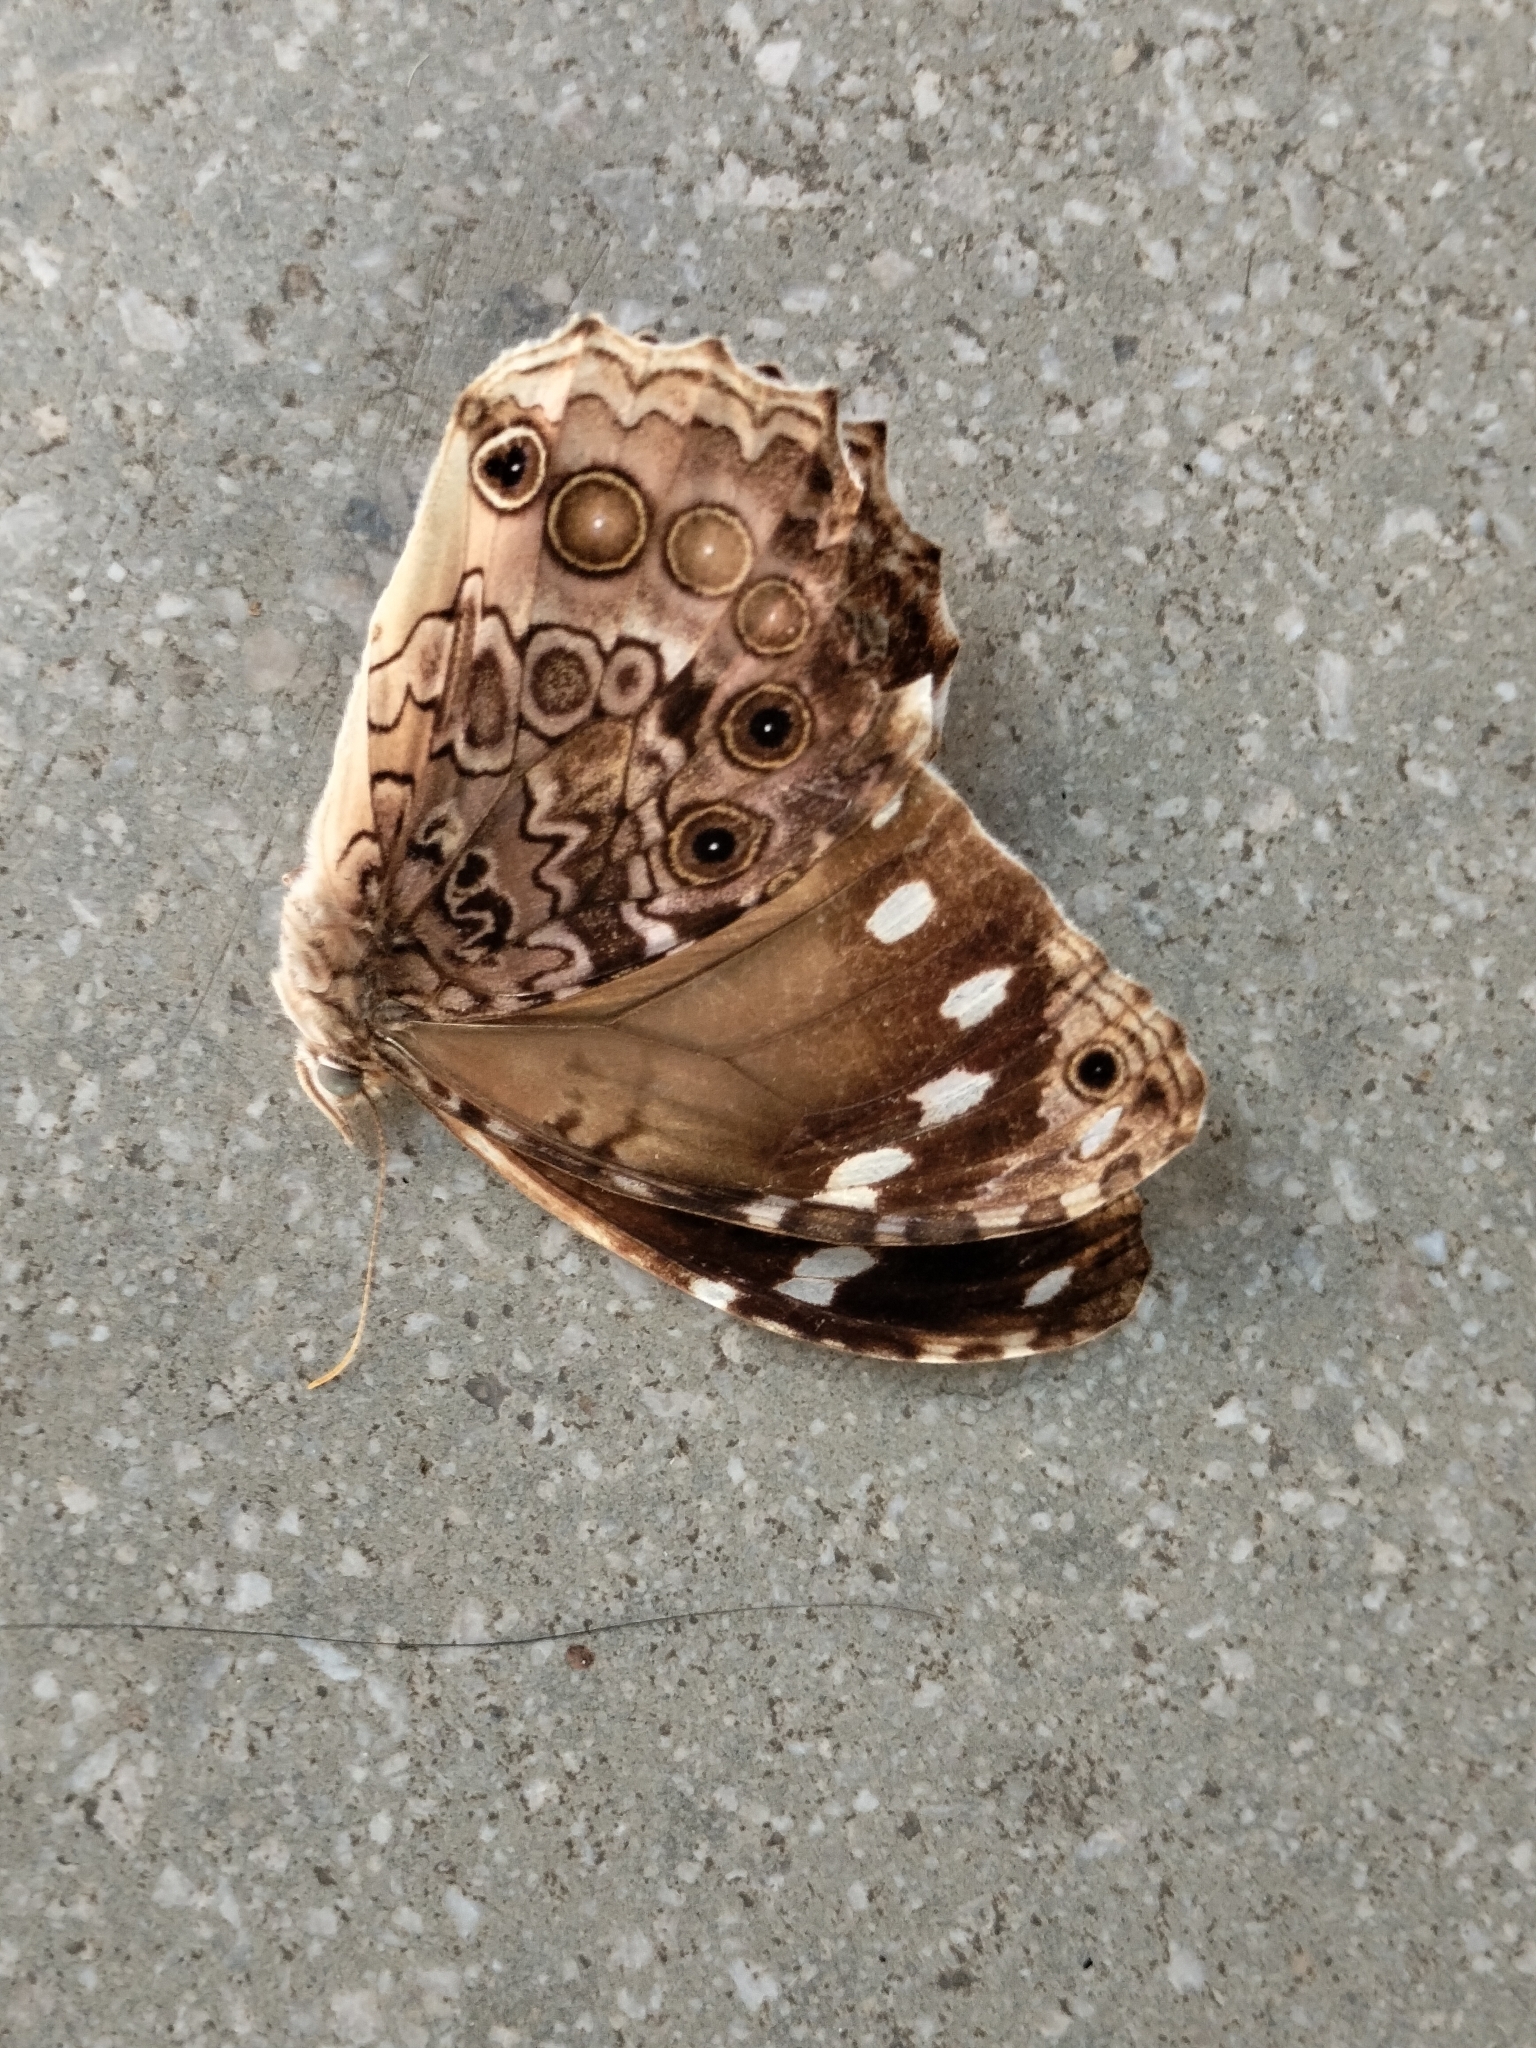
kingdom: Animalia
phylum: Arthropoda
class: Insecta
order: Lepidoptera
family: Nymphalidae
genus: Manataria
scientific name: Manataria maculata
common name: White-spotted satyr
